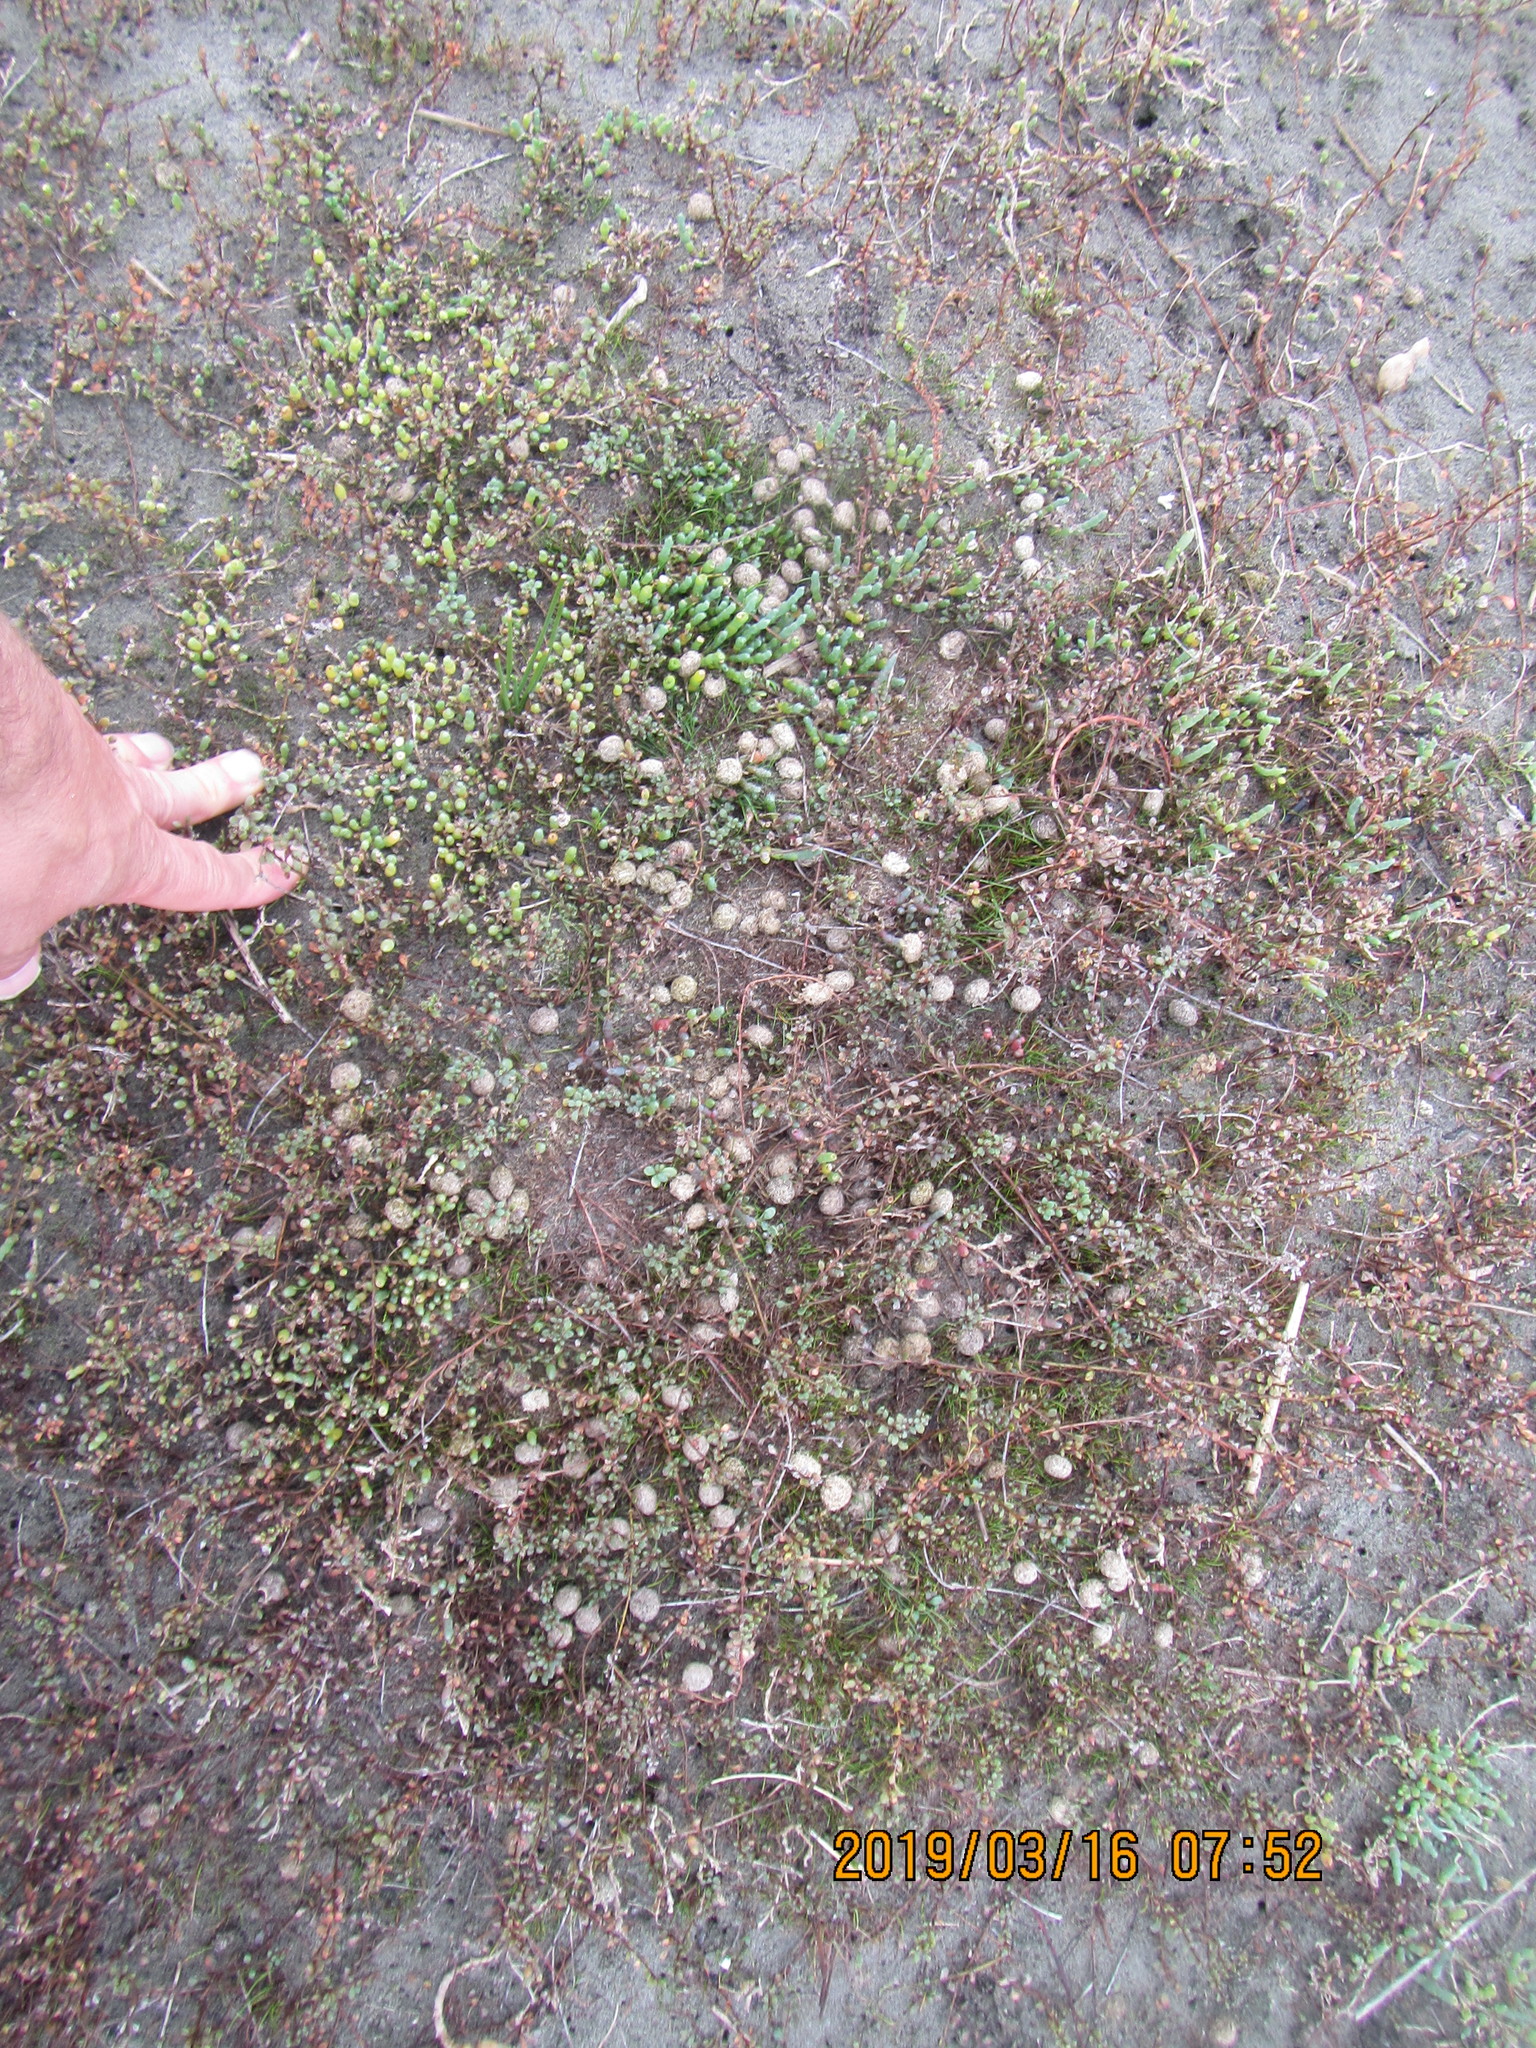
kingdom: Plantae
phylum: Tracheophyta
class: Magnoliopsida
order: Caryophyllales
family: Amaranthaceae
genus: Salicornia
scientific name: Salicornia quinqueflora
